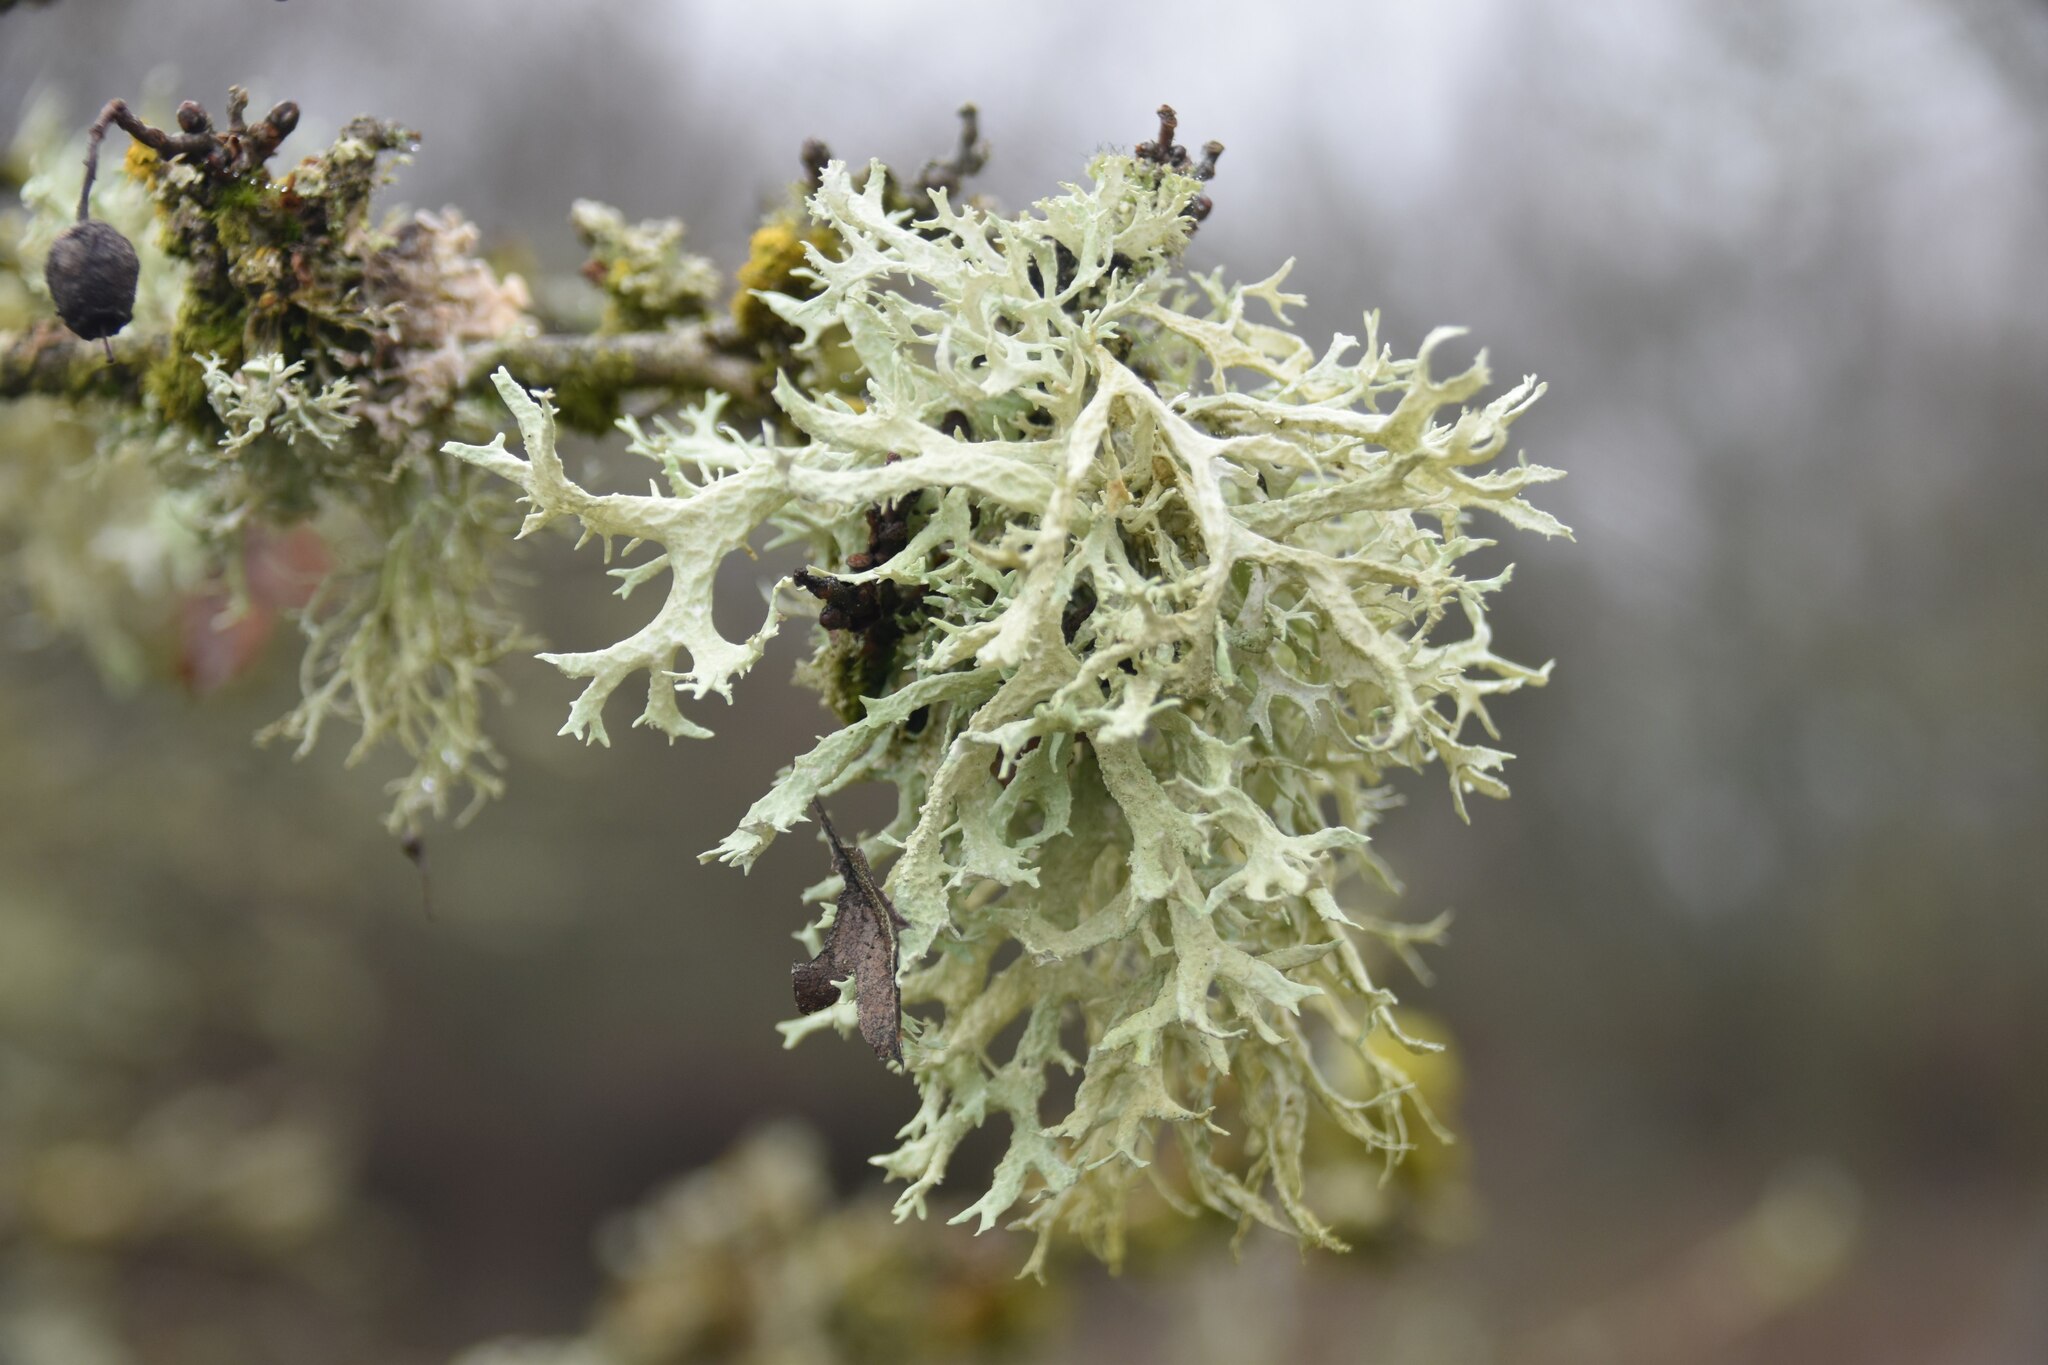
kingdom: Fungi
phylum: Ascomycota
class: Lecanoromycetes
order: Lecanorales
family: Parmeliaceae
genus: Evernia
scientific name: Evernia prunastri
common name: Oak moss
